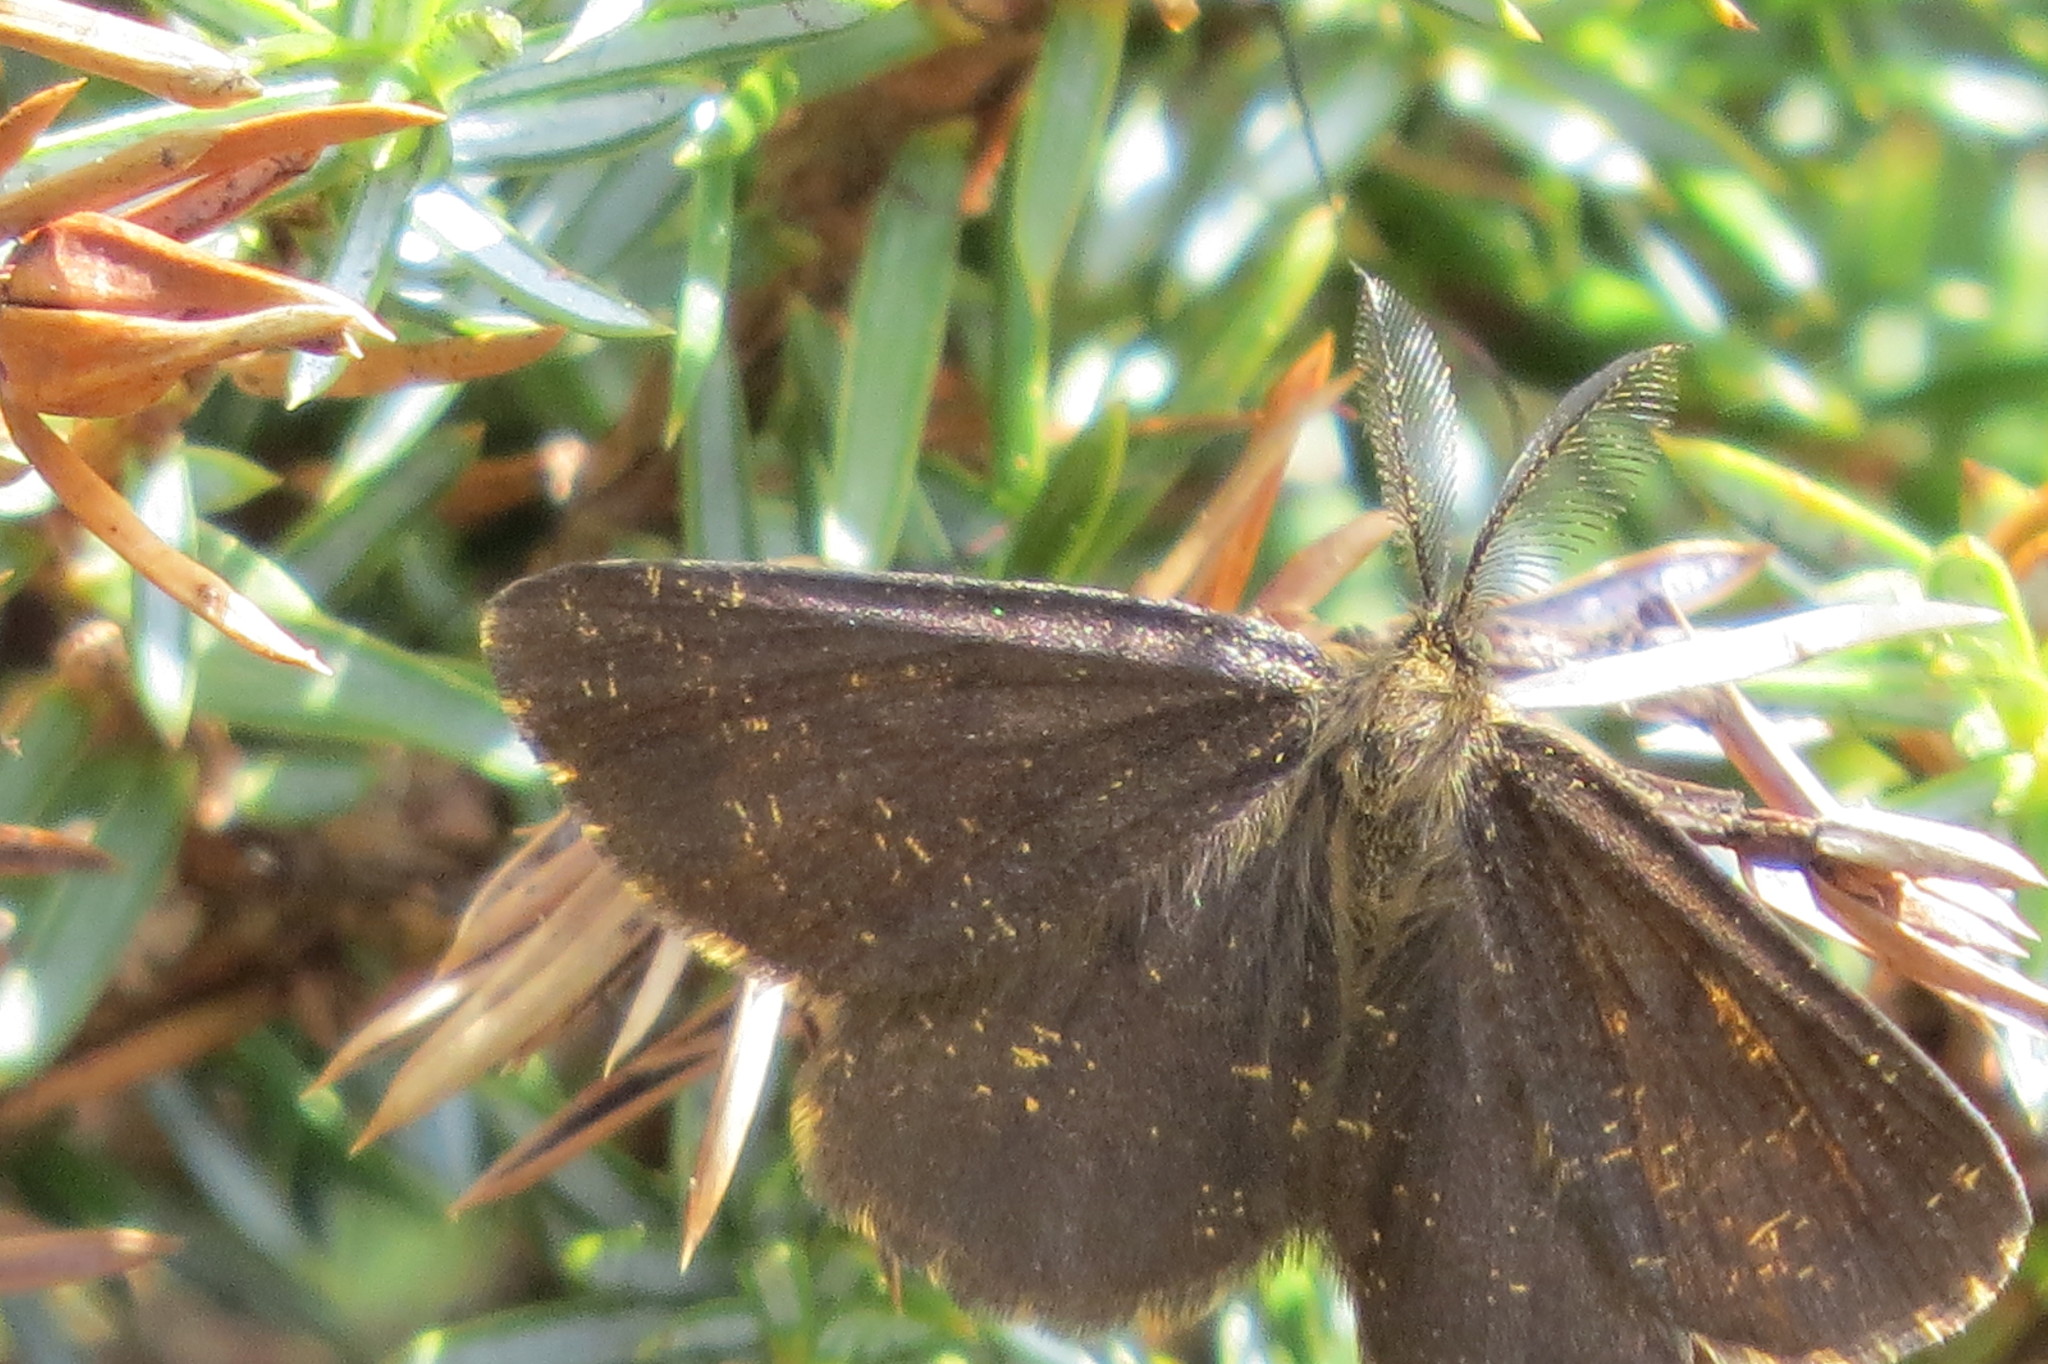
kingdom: Animalia
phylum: Arthropoda
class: Insecta
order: Lepidoptera
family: Geometridae
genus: Ematurga
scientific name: Ematurga atomaria
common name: Common heath
